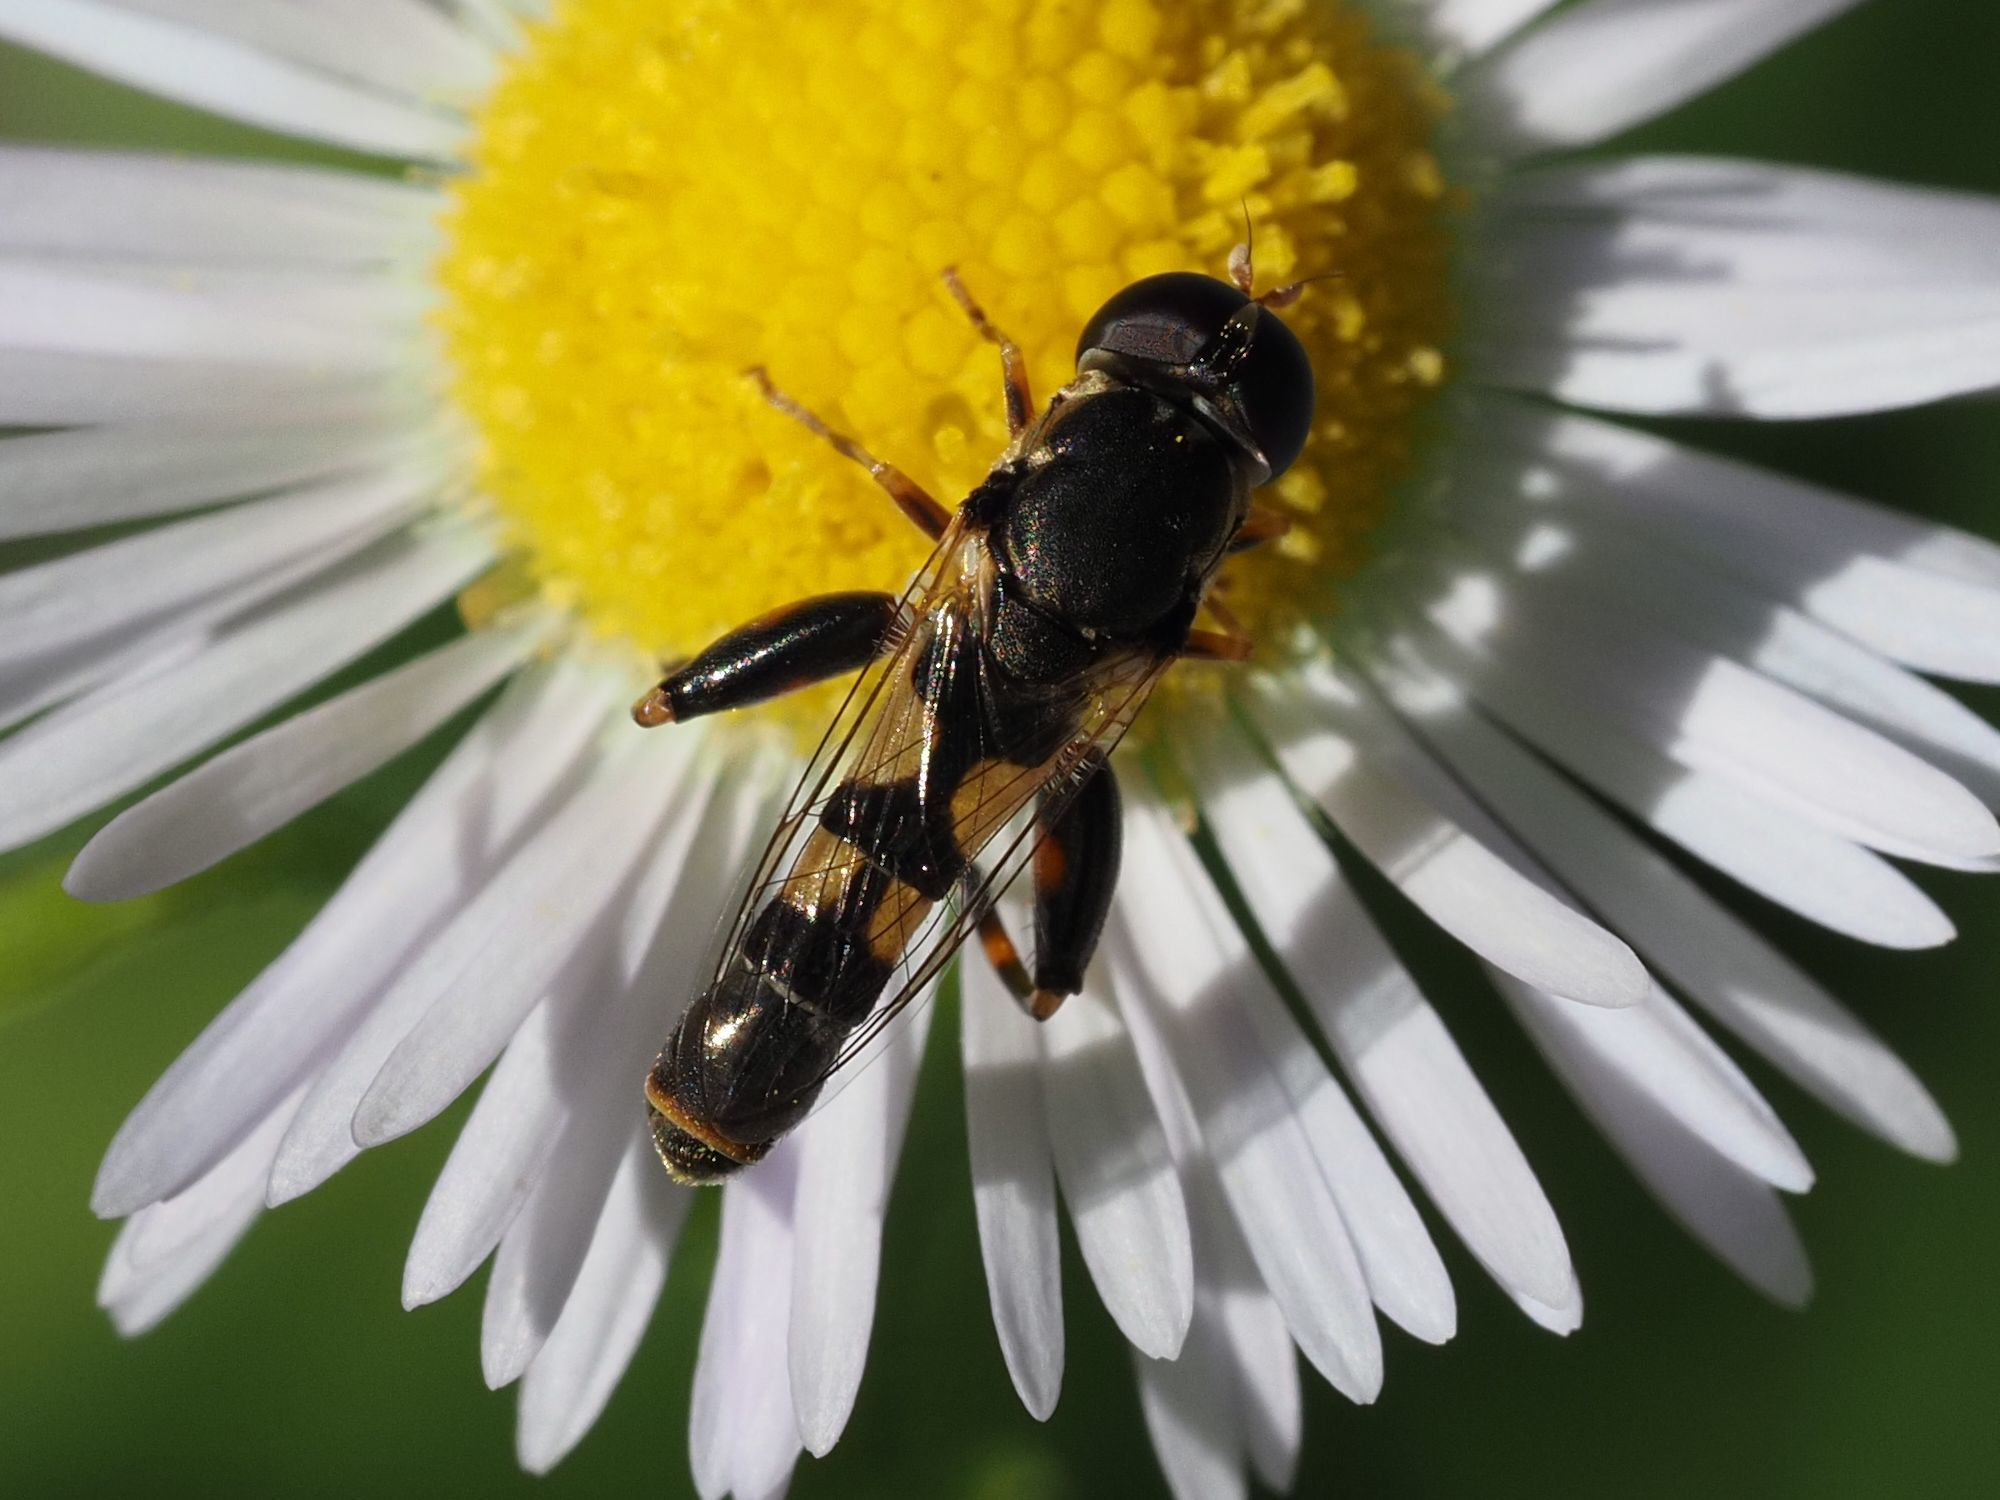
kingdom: Animalia
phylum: Arthropoda
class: Insecta
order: Diptera
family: Syrphidae
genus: Syritta
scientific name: Syritta pipiens
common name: Hover fly
